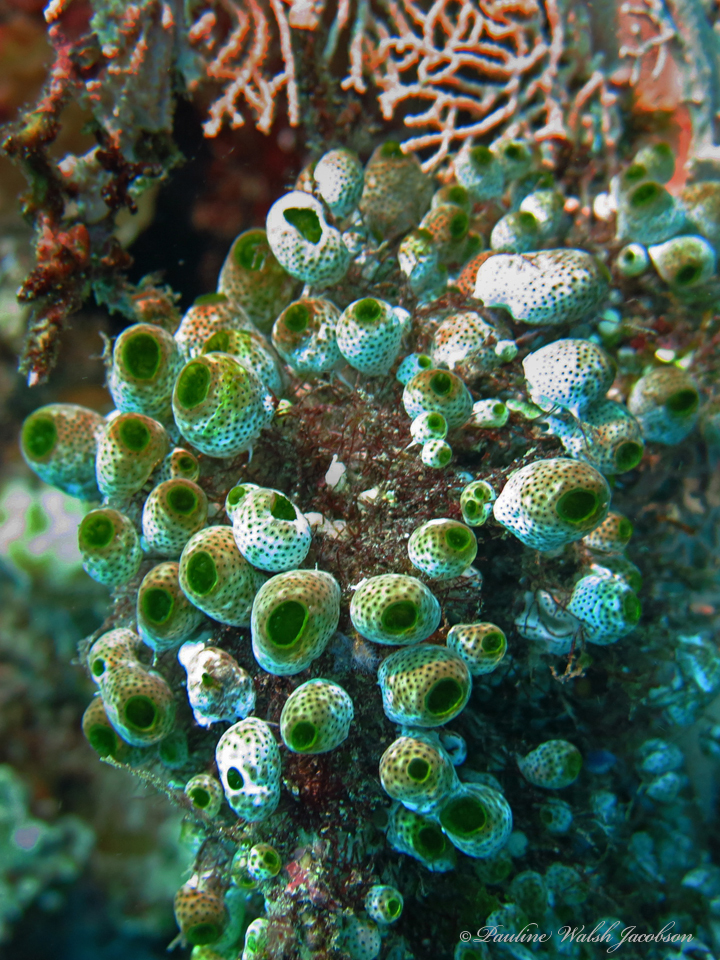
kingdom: Animalia
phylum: Chordata
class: Ascidiacea
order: Aplousobranchia
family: Didemnidae
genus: Didemnum
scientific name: Didemnum molle
